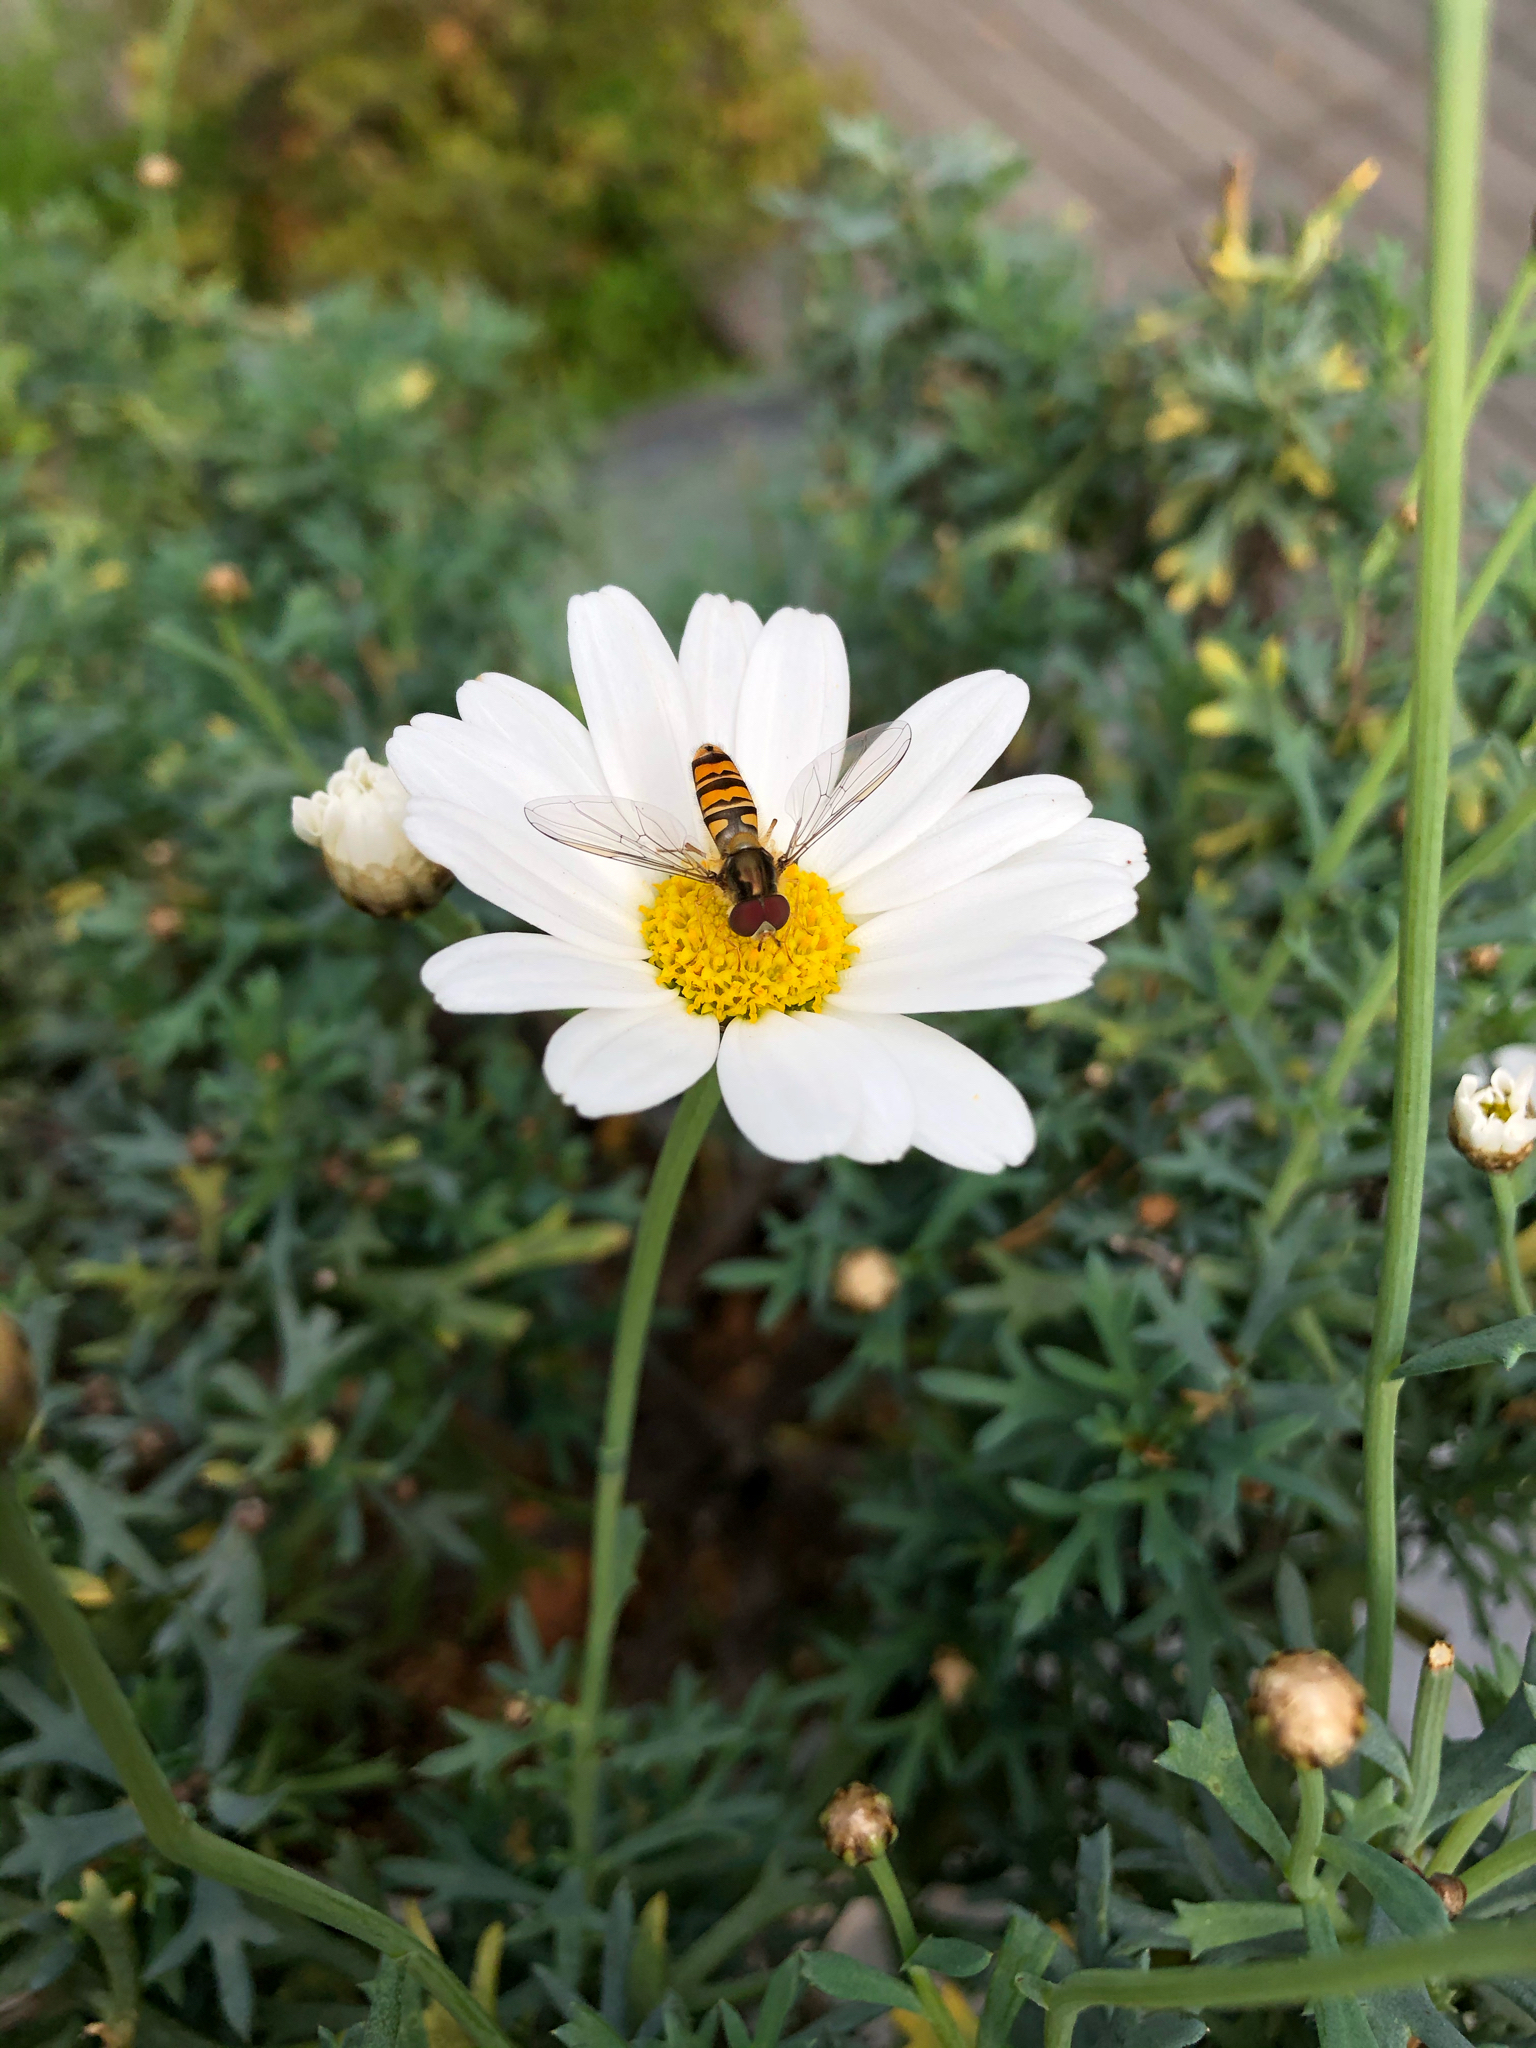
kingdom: Animalia
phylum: Arthropoda
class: Insecta
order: Diptera
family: Syrphidae
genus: Episyrphus
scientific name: Episyrphus balteatus
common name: Marmalade hoverfly
